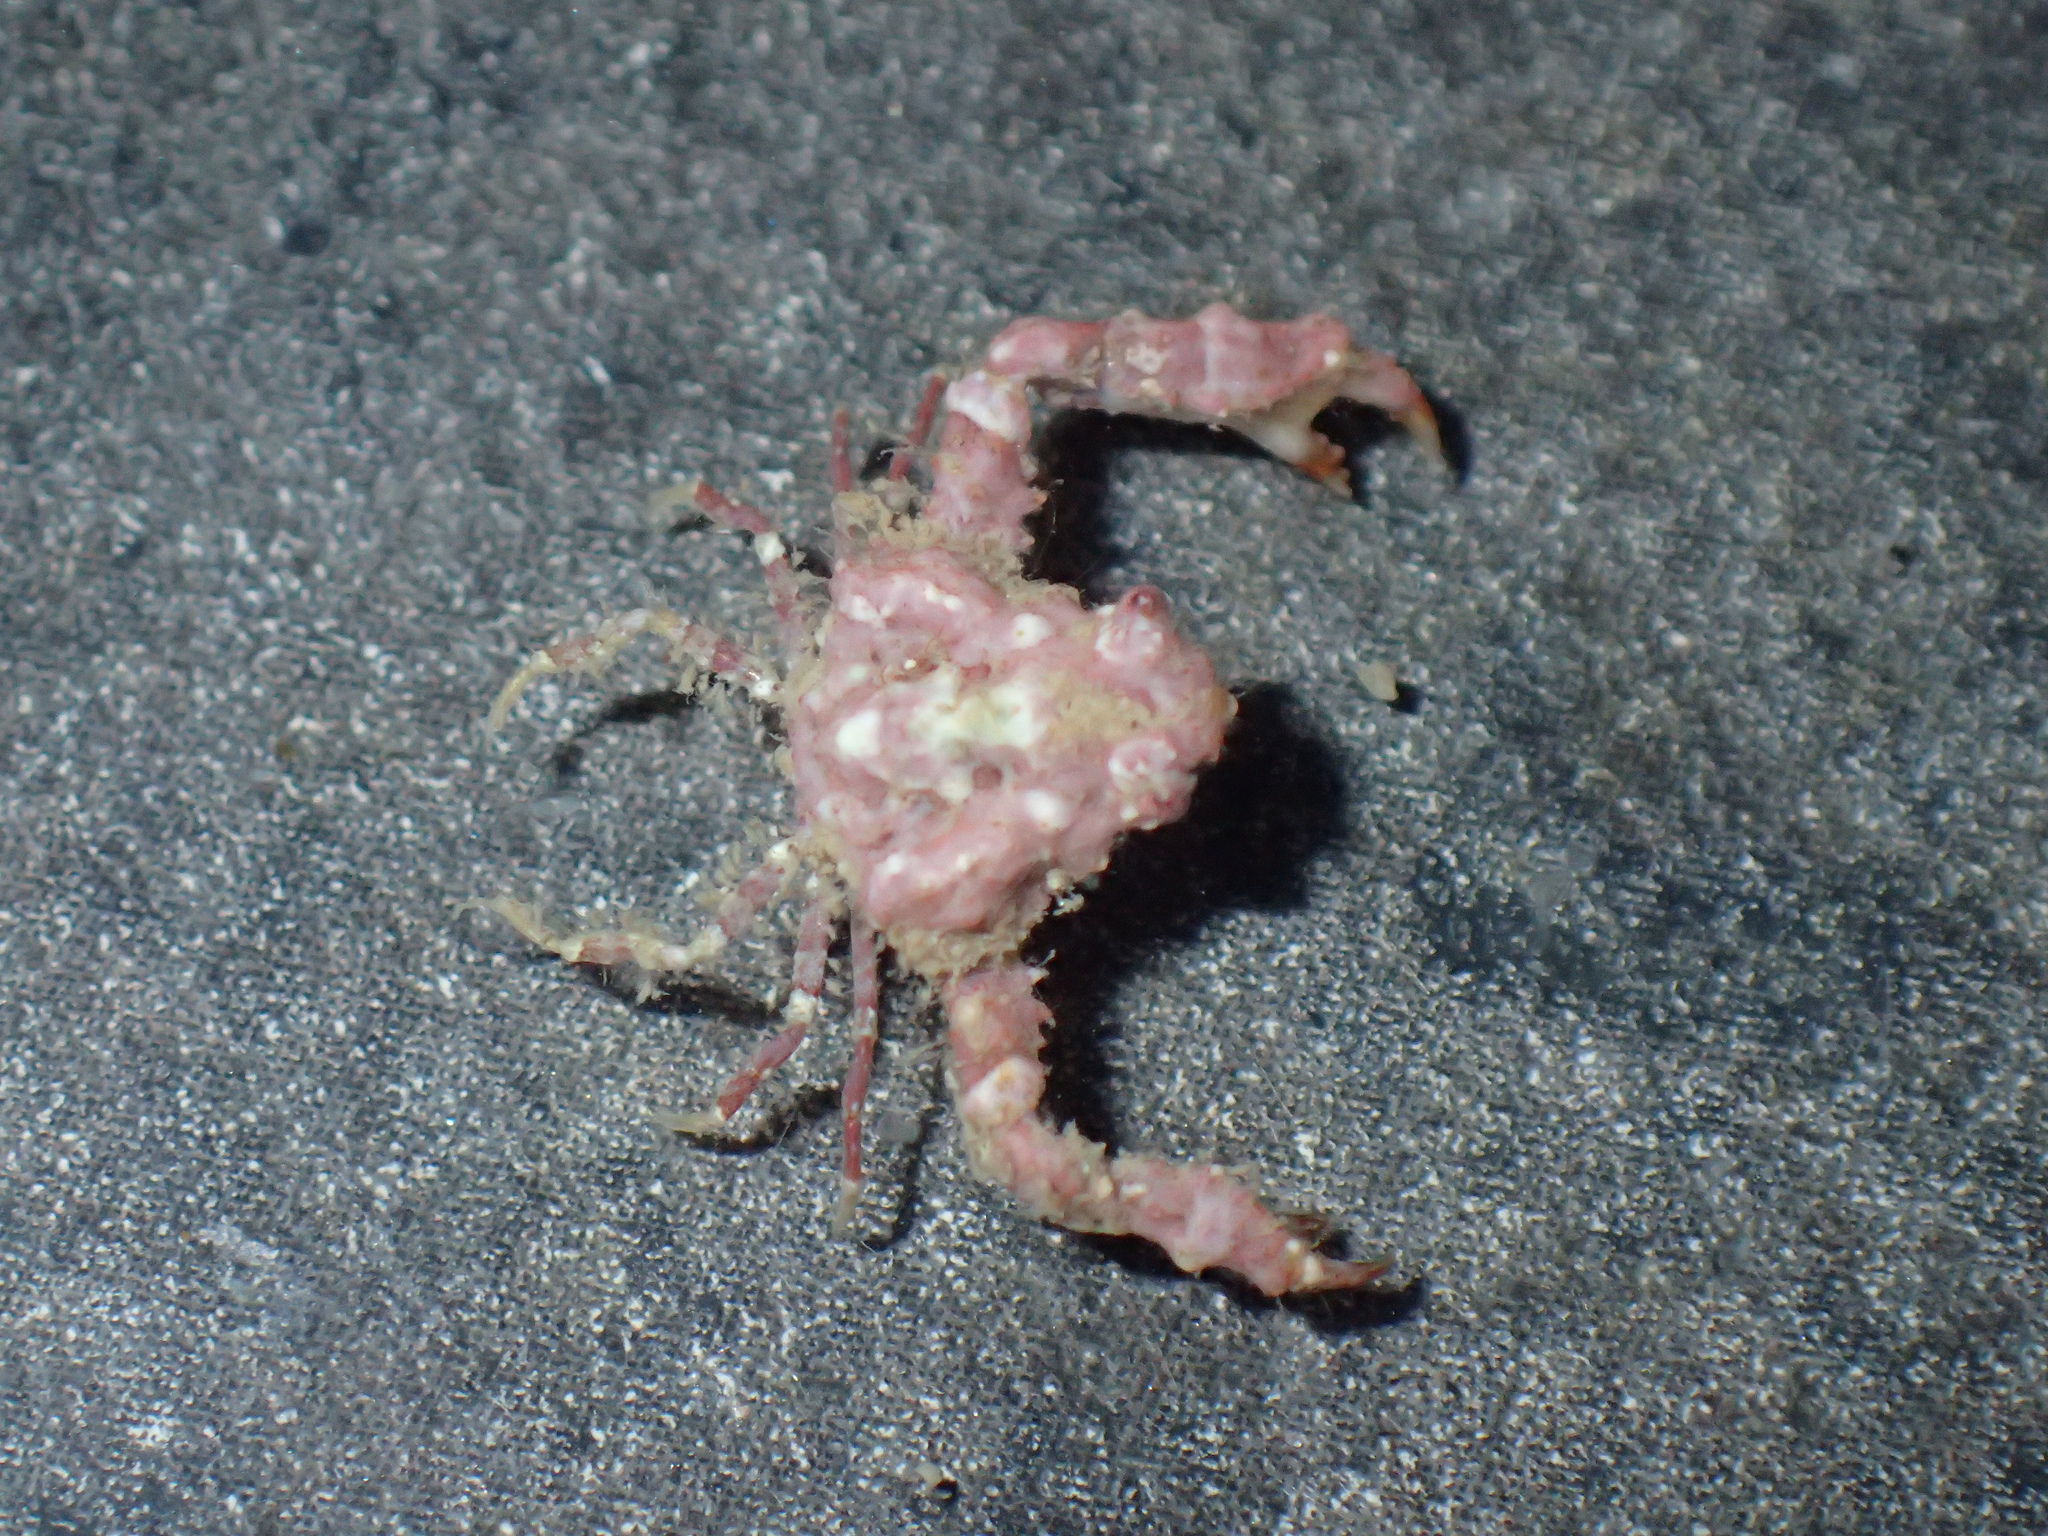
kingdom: Animalia
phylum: Arthropoda
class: Malacostraca
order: Decapoda
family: Parthenopidae
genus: Parthenopoides
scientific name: Parthenopoides massena
